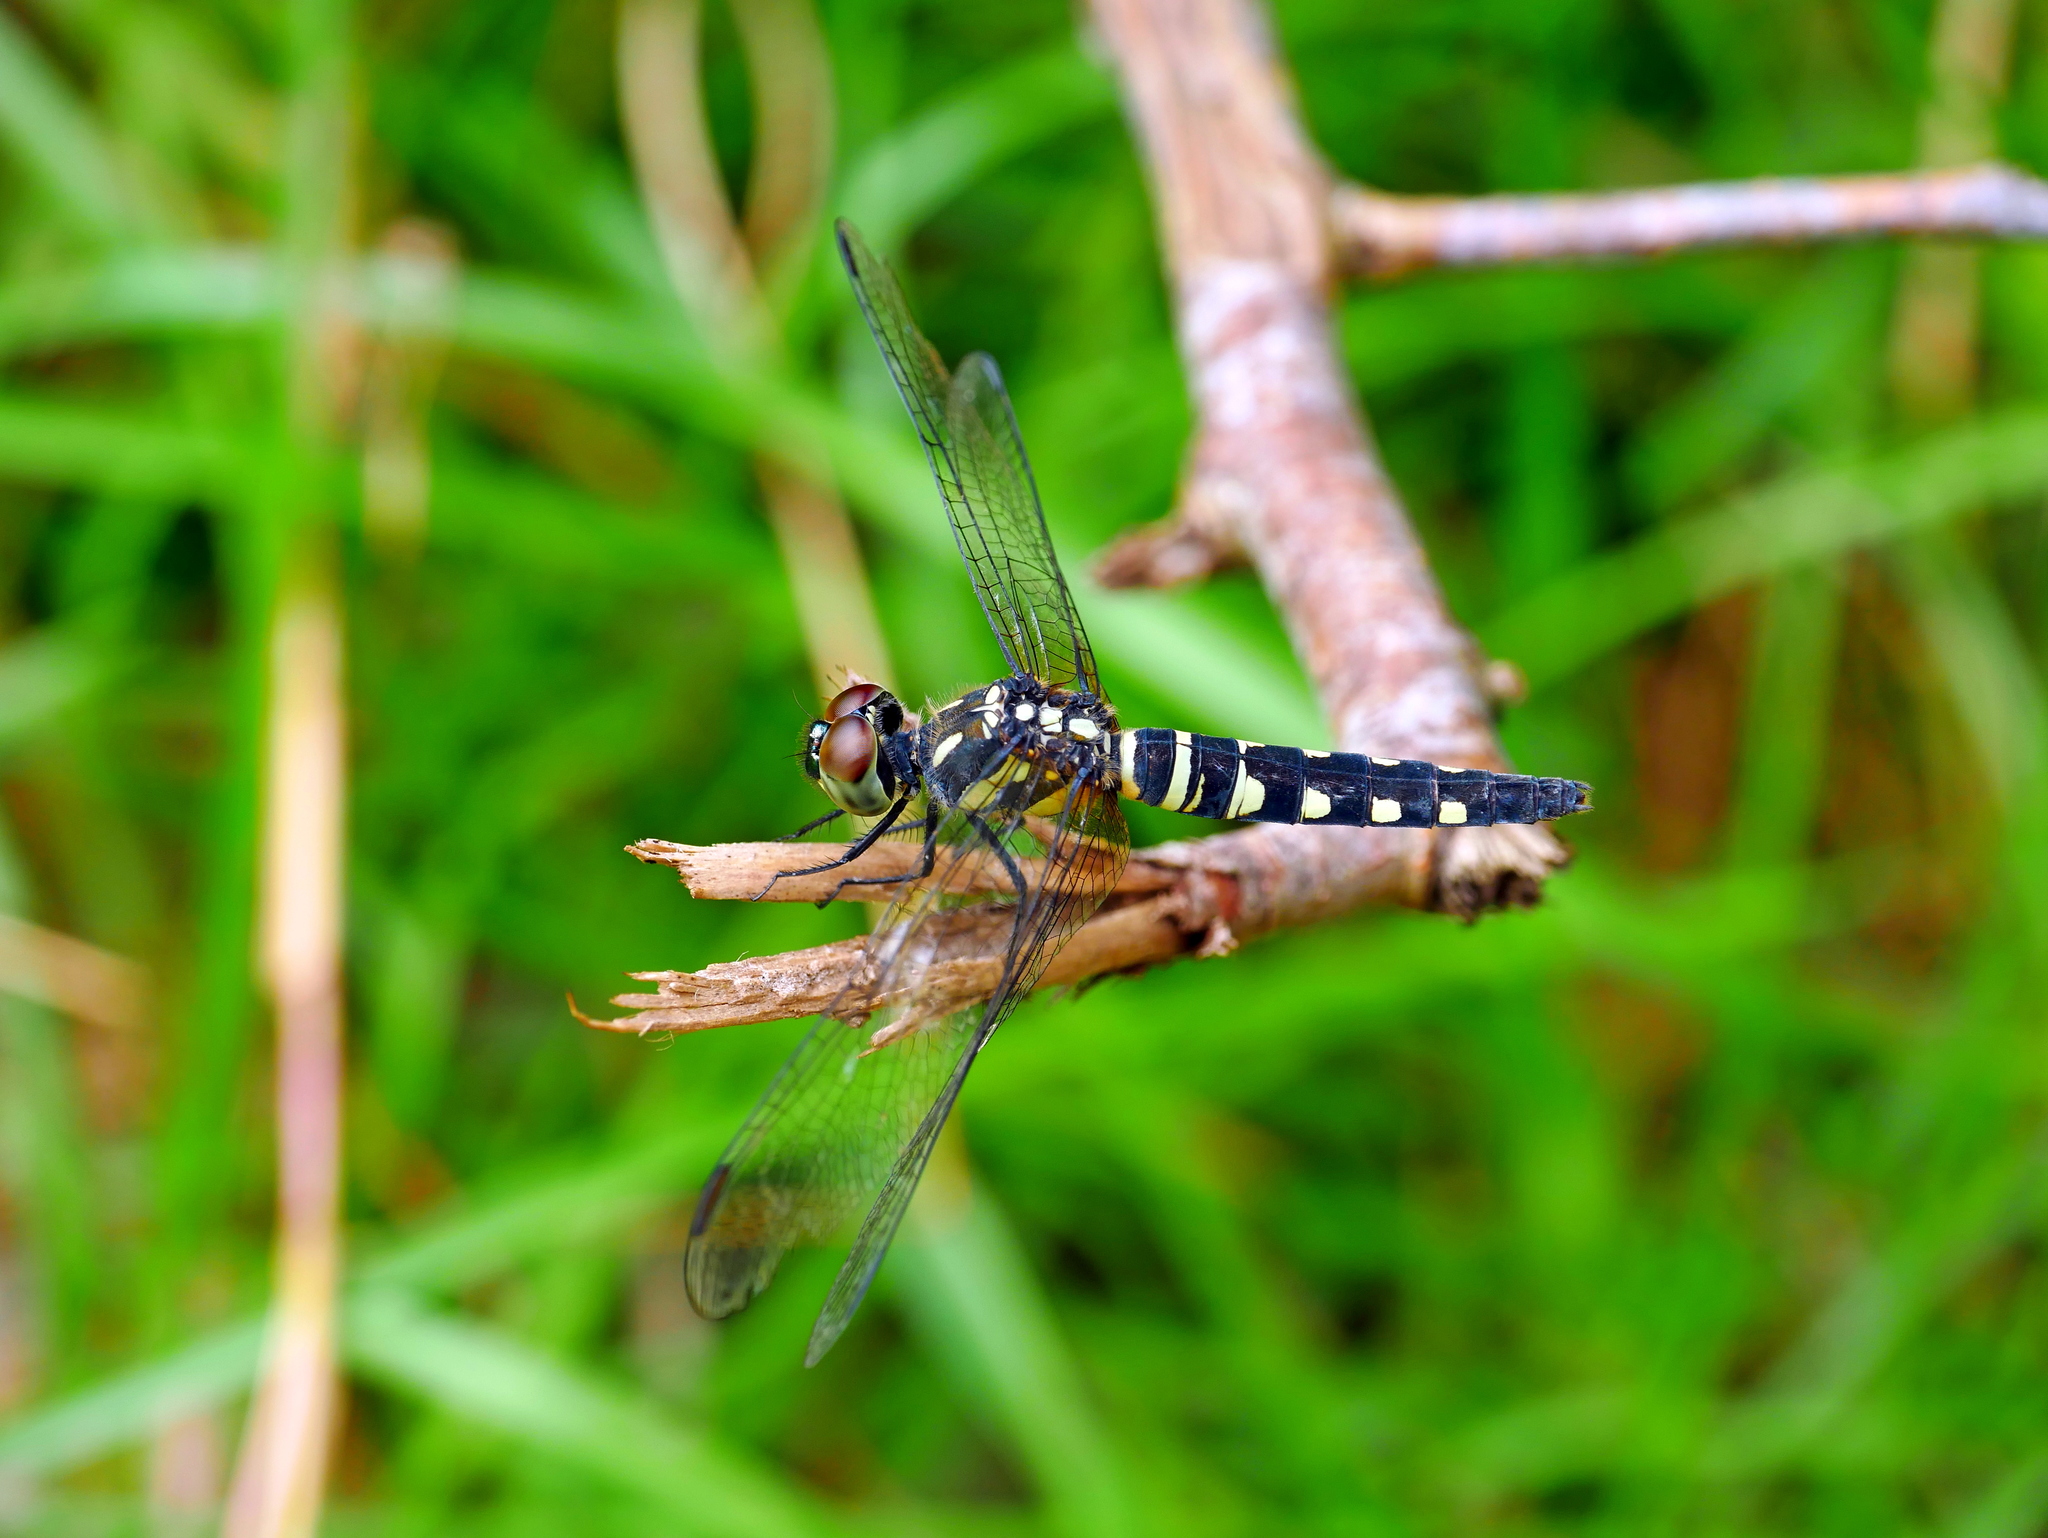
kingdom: Animalia
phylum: Arthropoda
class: Insecta
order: Odonata
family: Libellulidae
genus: Brachydiplax
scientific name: Brachydiplax chalybea
